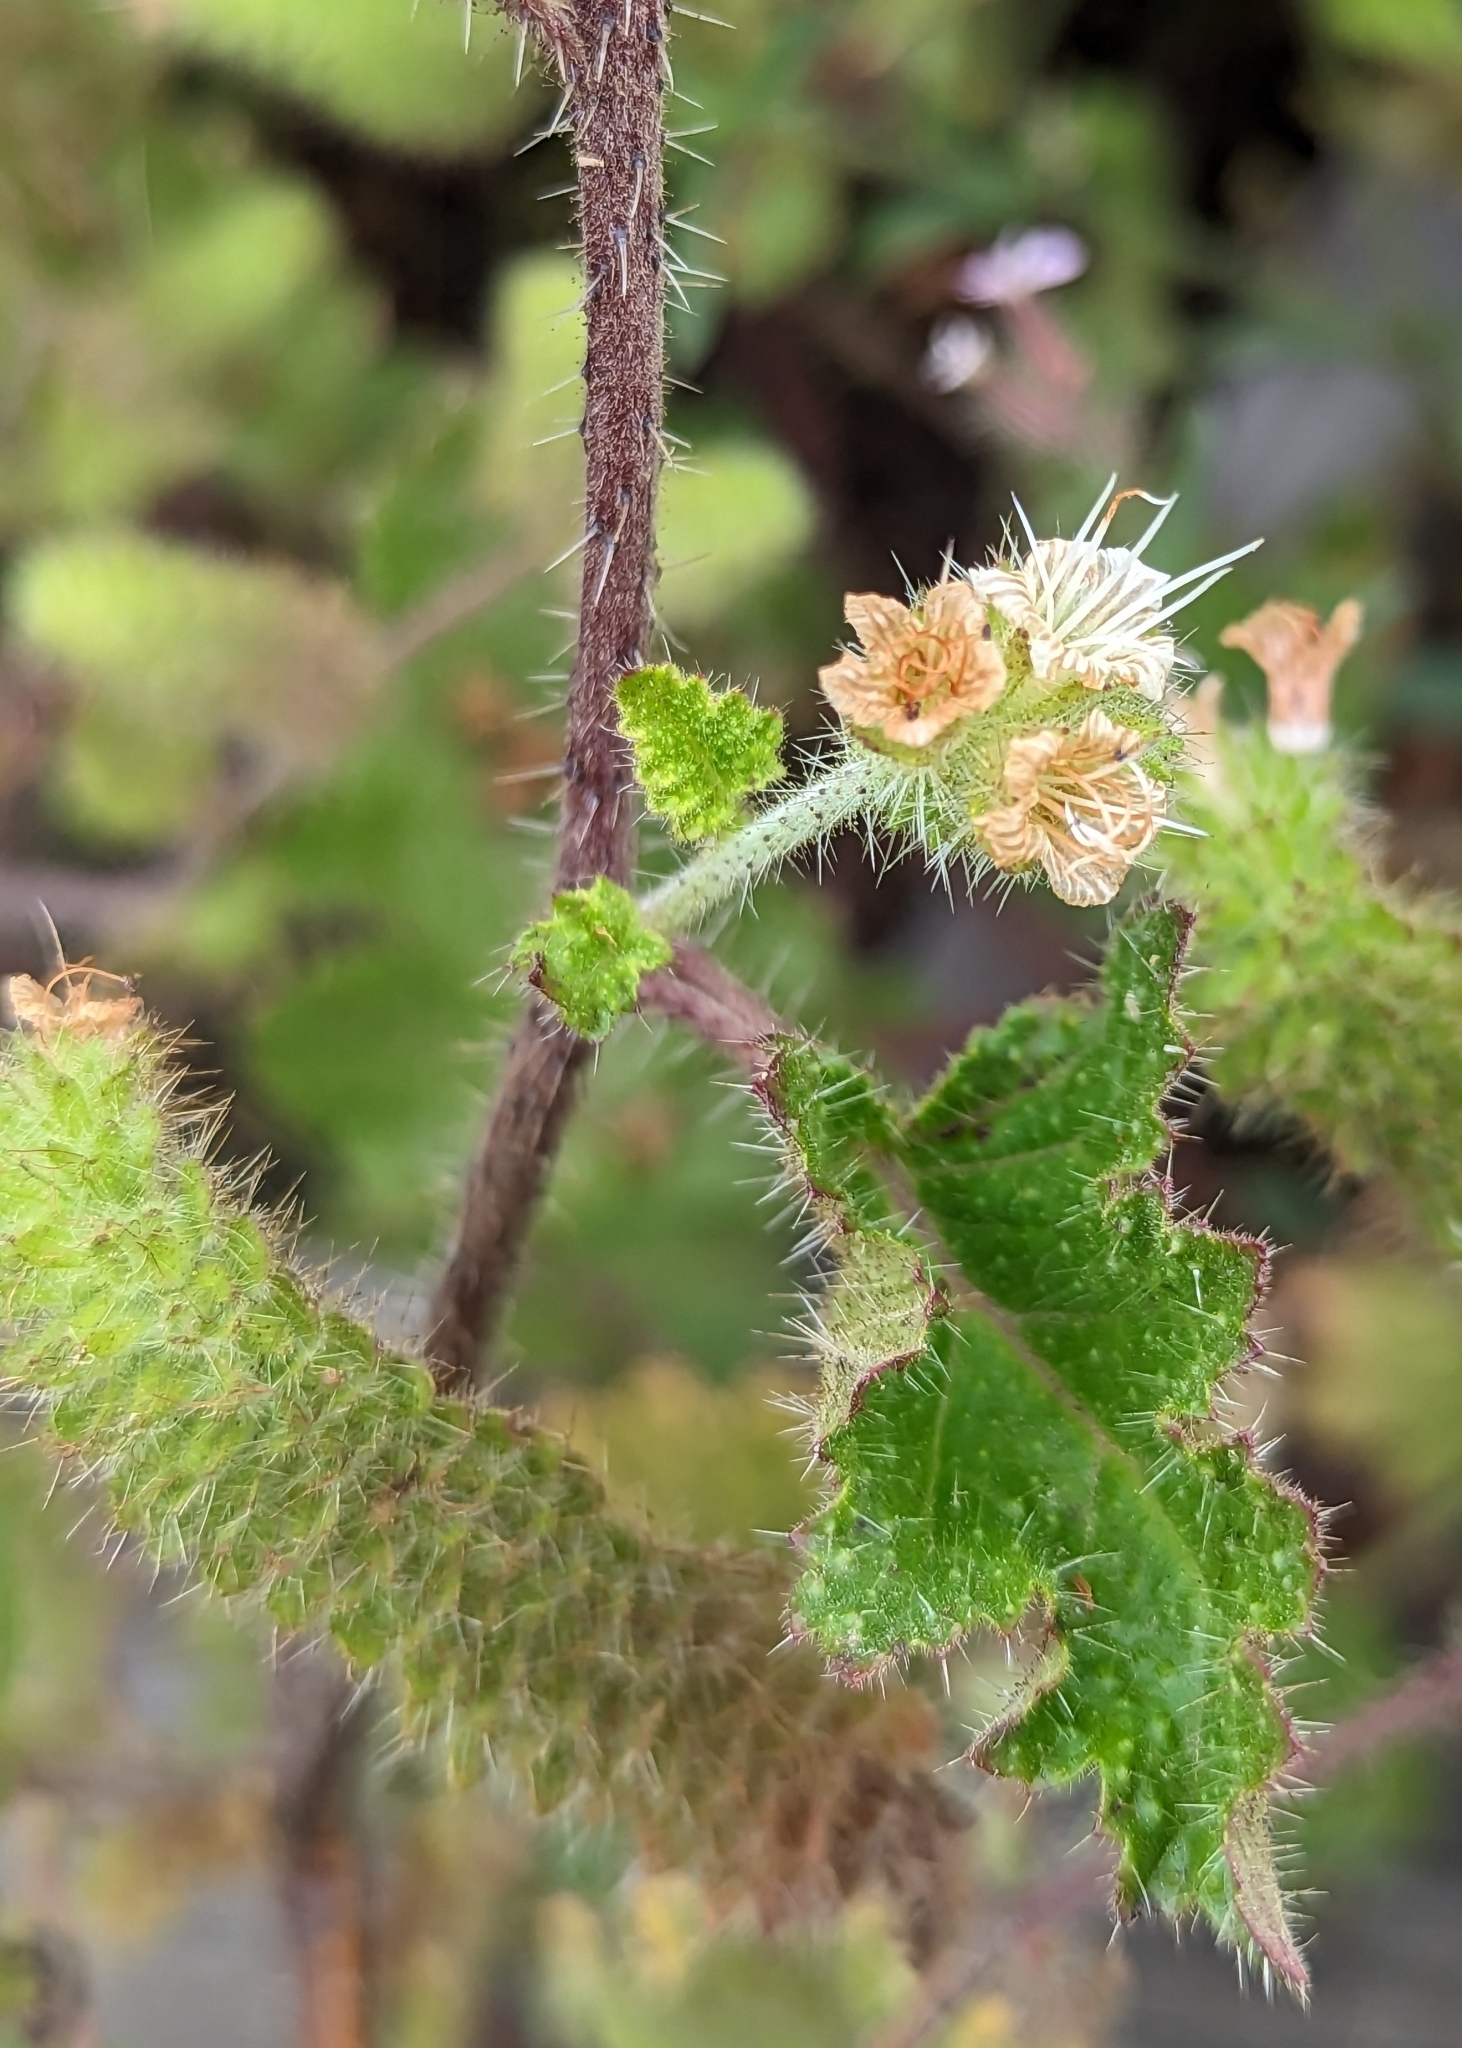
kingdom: Plantae
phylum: Tracheophyta
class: Magnoliopsida
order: Boraginales
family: Hydrophyllaceae
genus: Phacelia
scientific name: Phacelia malvifolia
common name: Mallow-leaf phacelia
